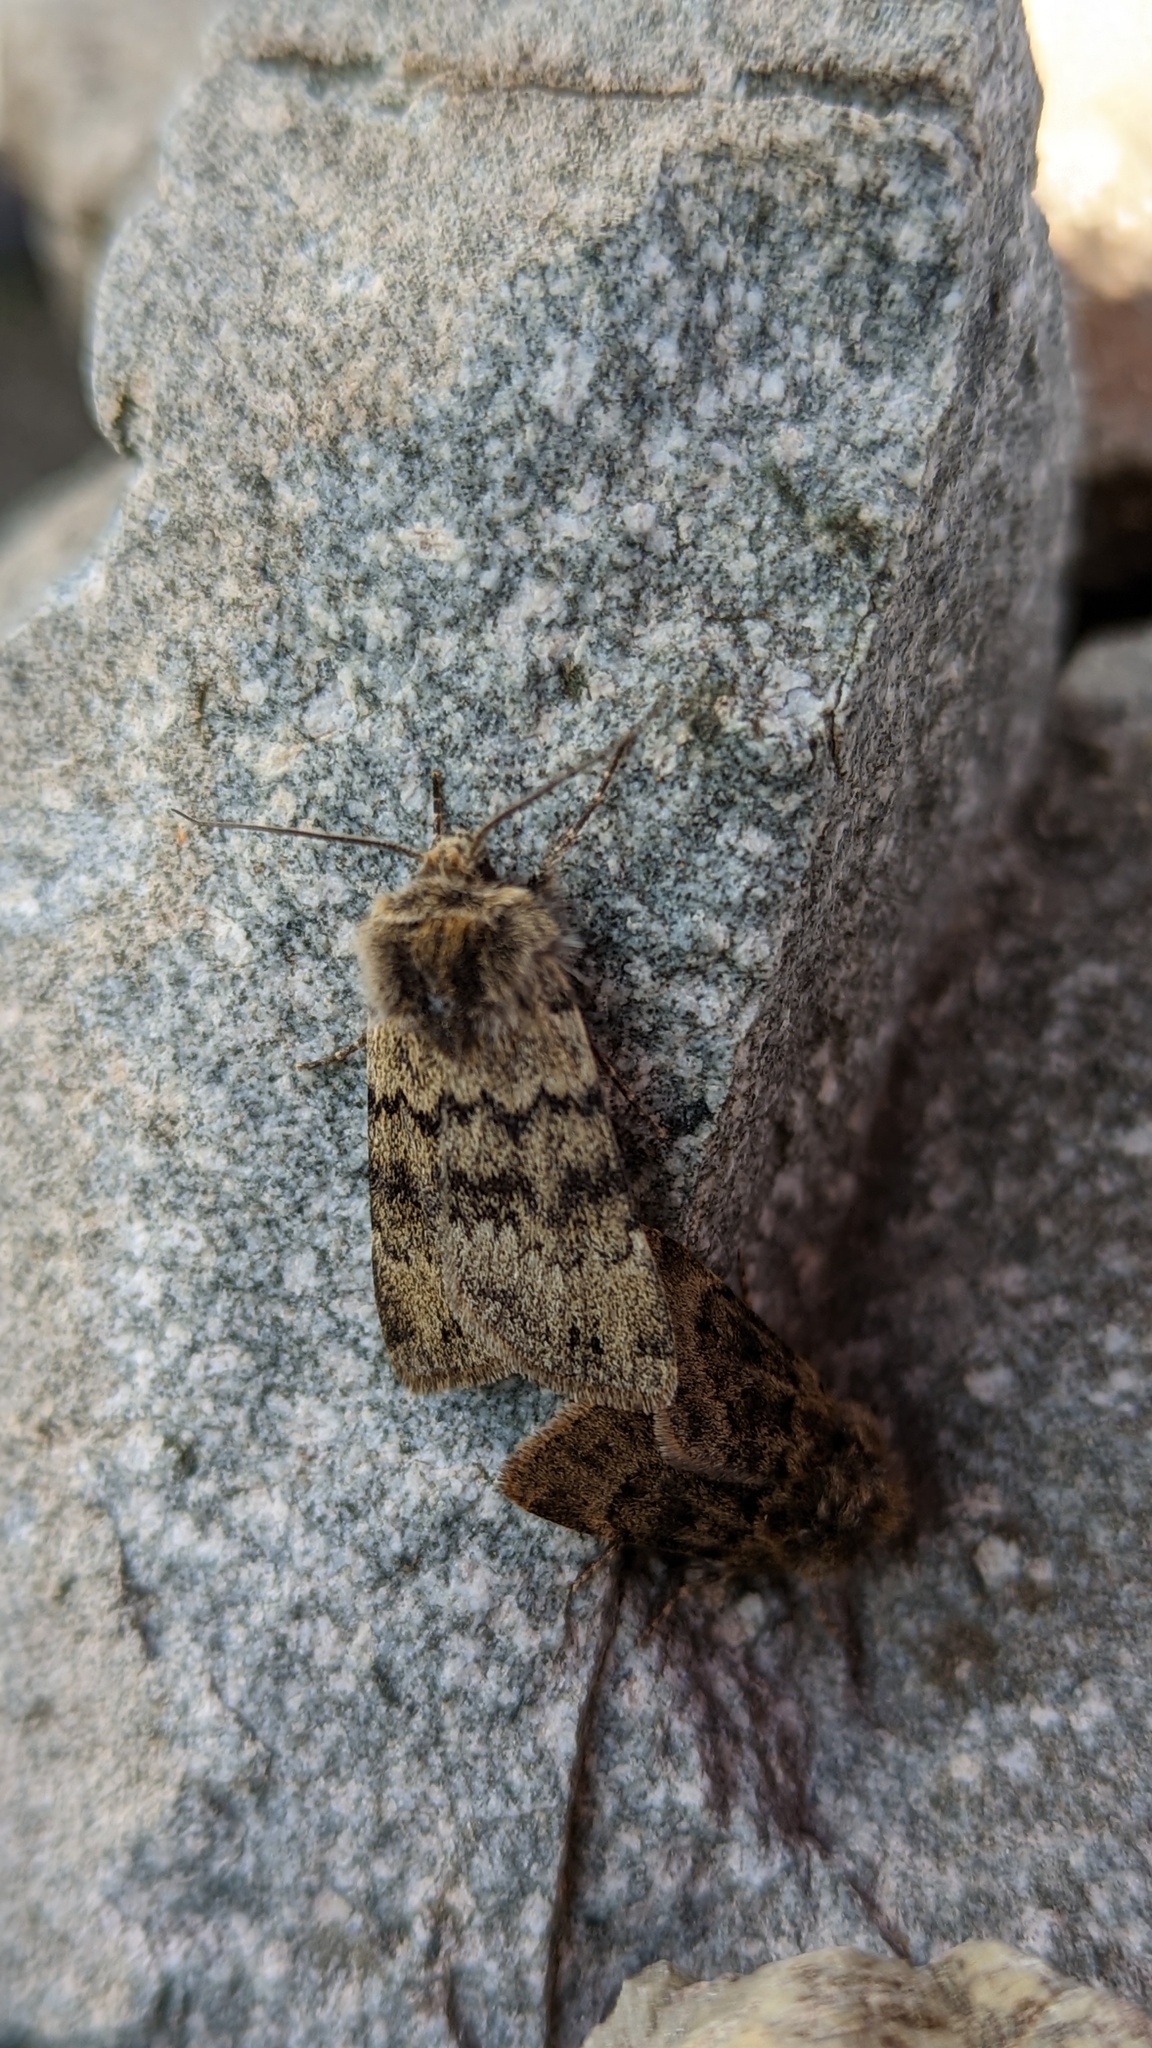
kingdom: Animalia
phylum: Arthropoda
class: Insecta
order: Lepidoptera
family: Noctuidae
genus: Euxoa
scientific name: Euxoa setonia
